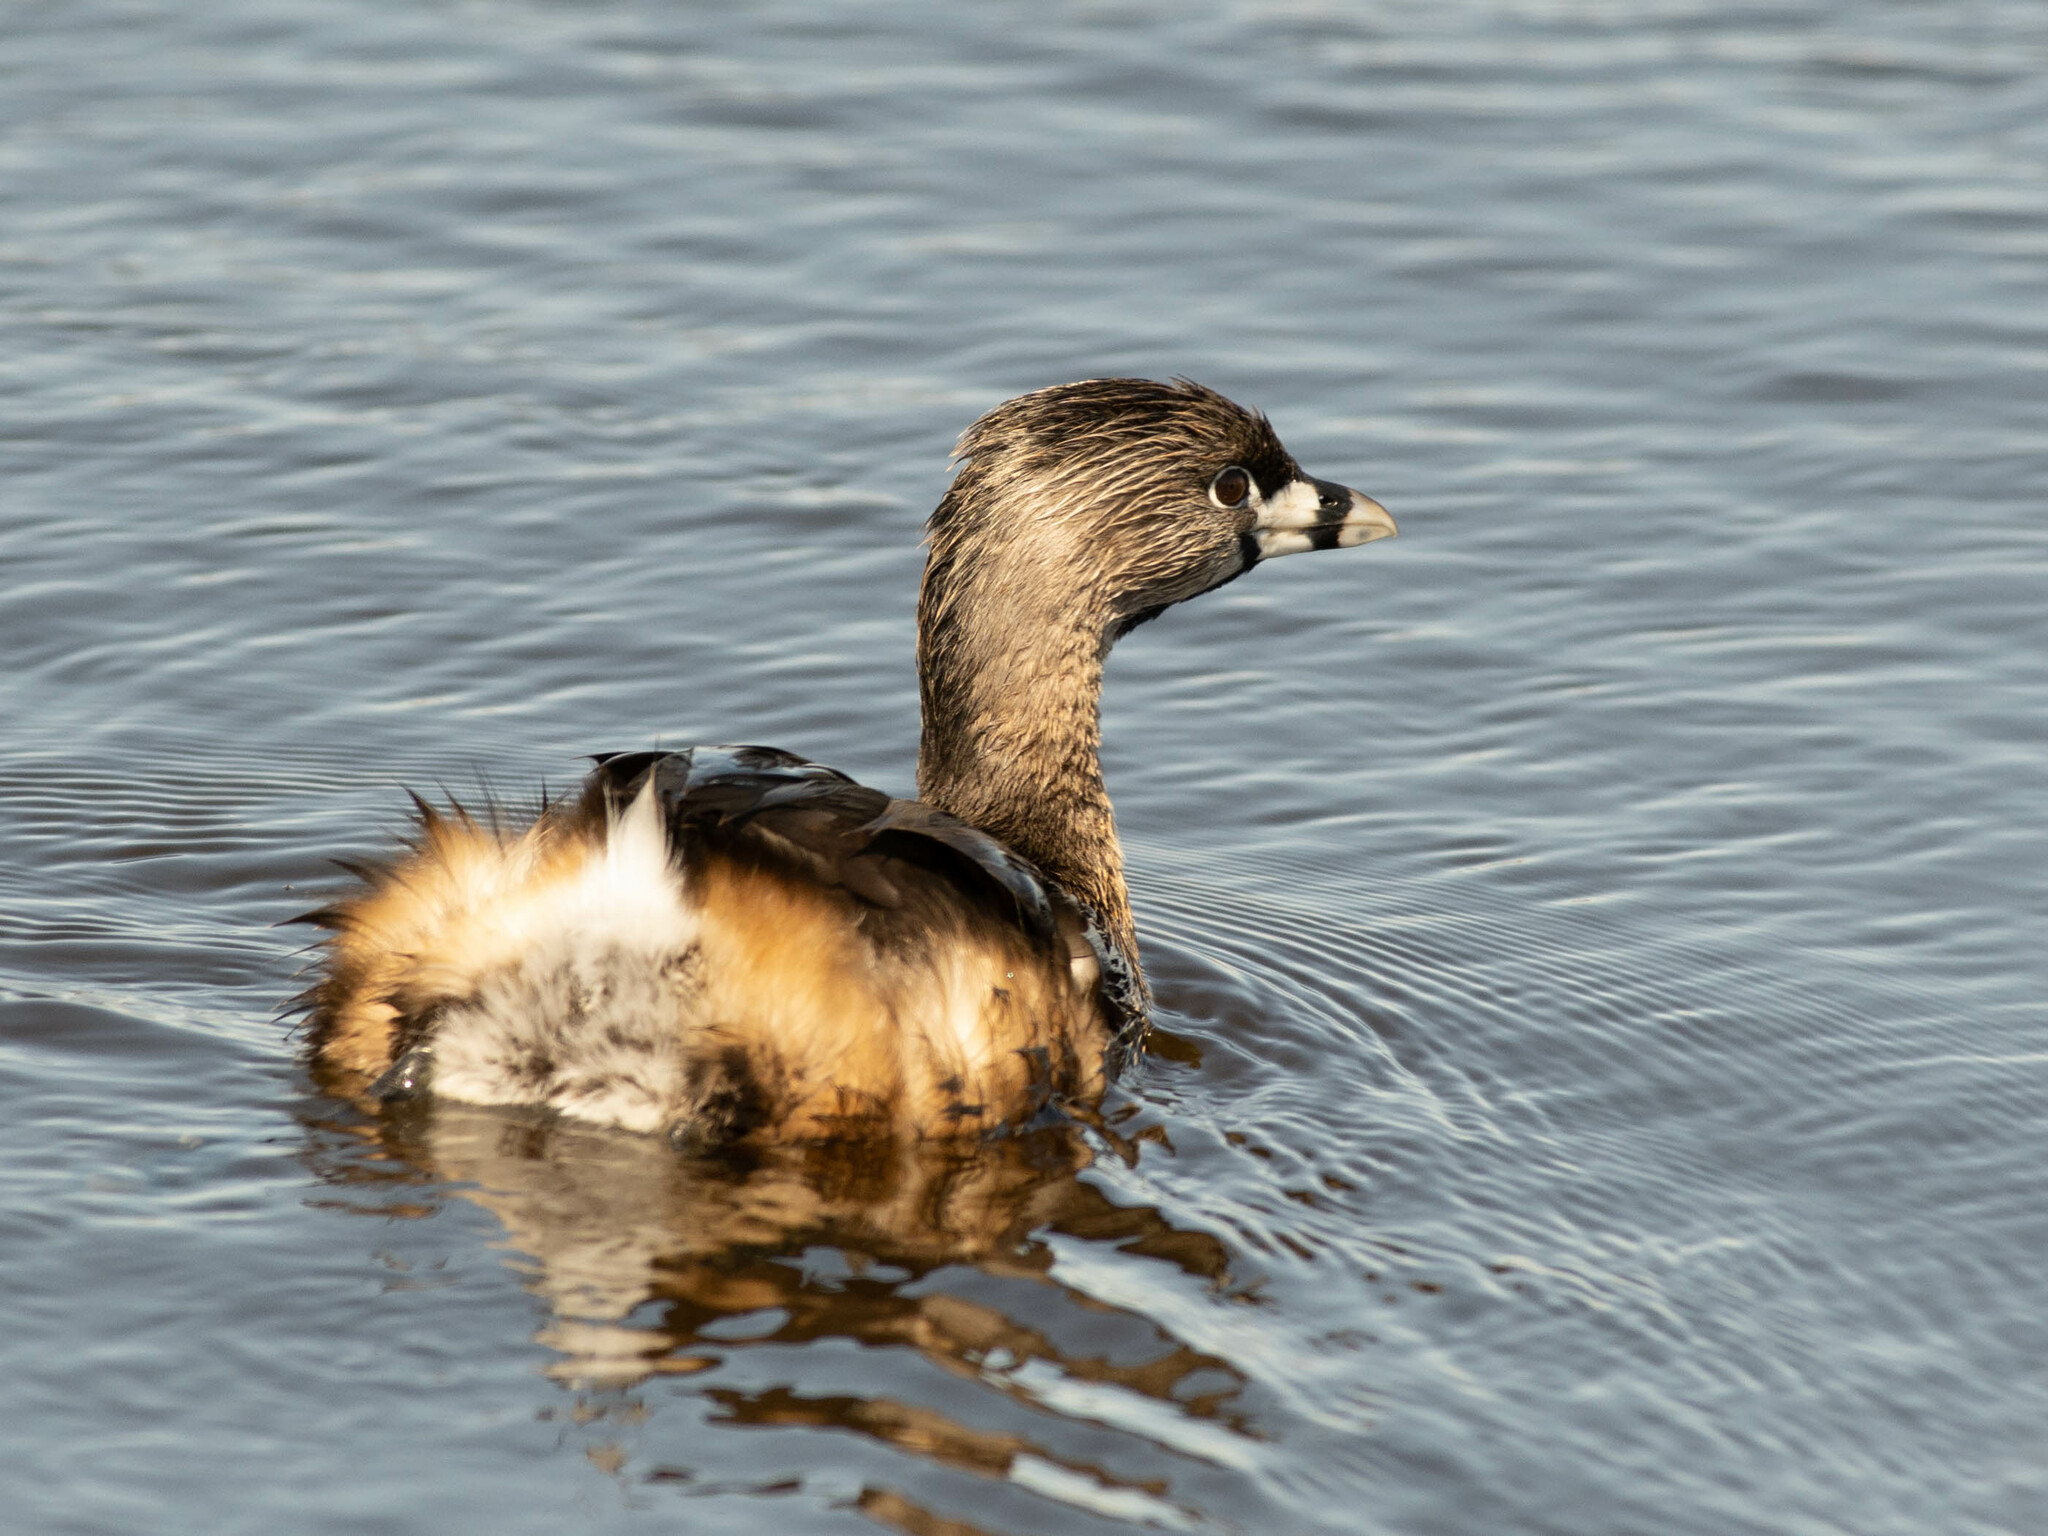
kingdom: Animalia
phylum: Chordata
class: Aves
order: Podicipediformes
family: Podicipedidae
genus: Podilymbus
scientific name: Podilymbus podiceps
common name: Pied-billed grebe
